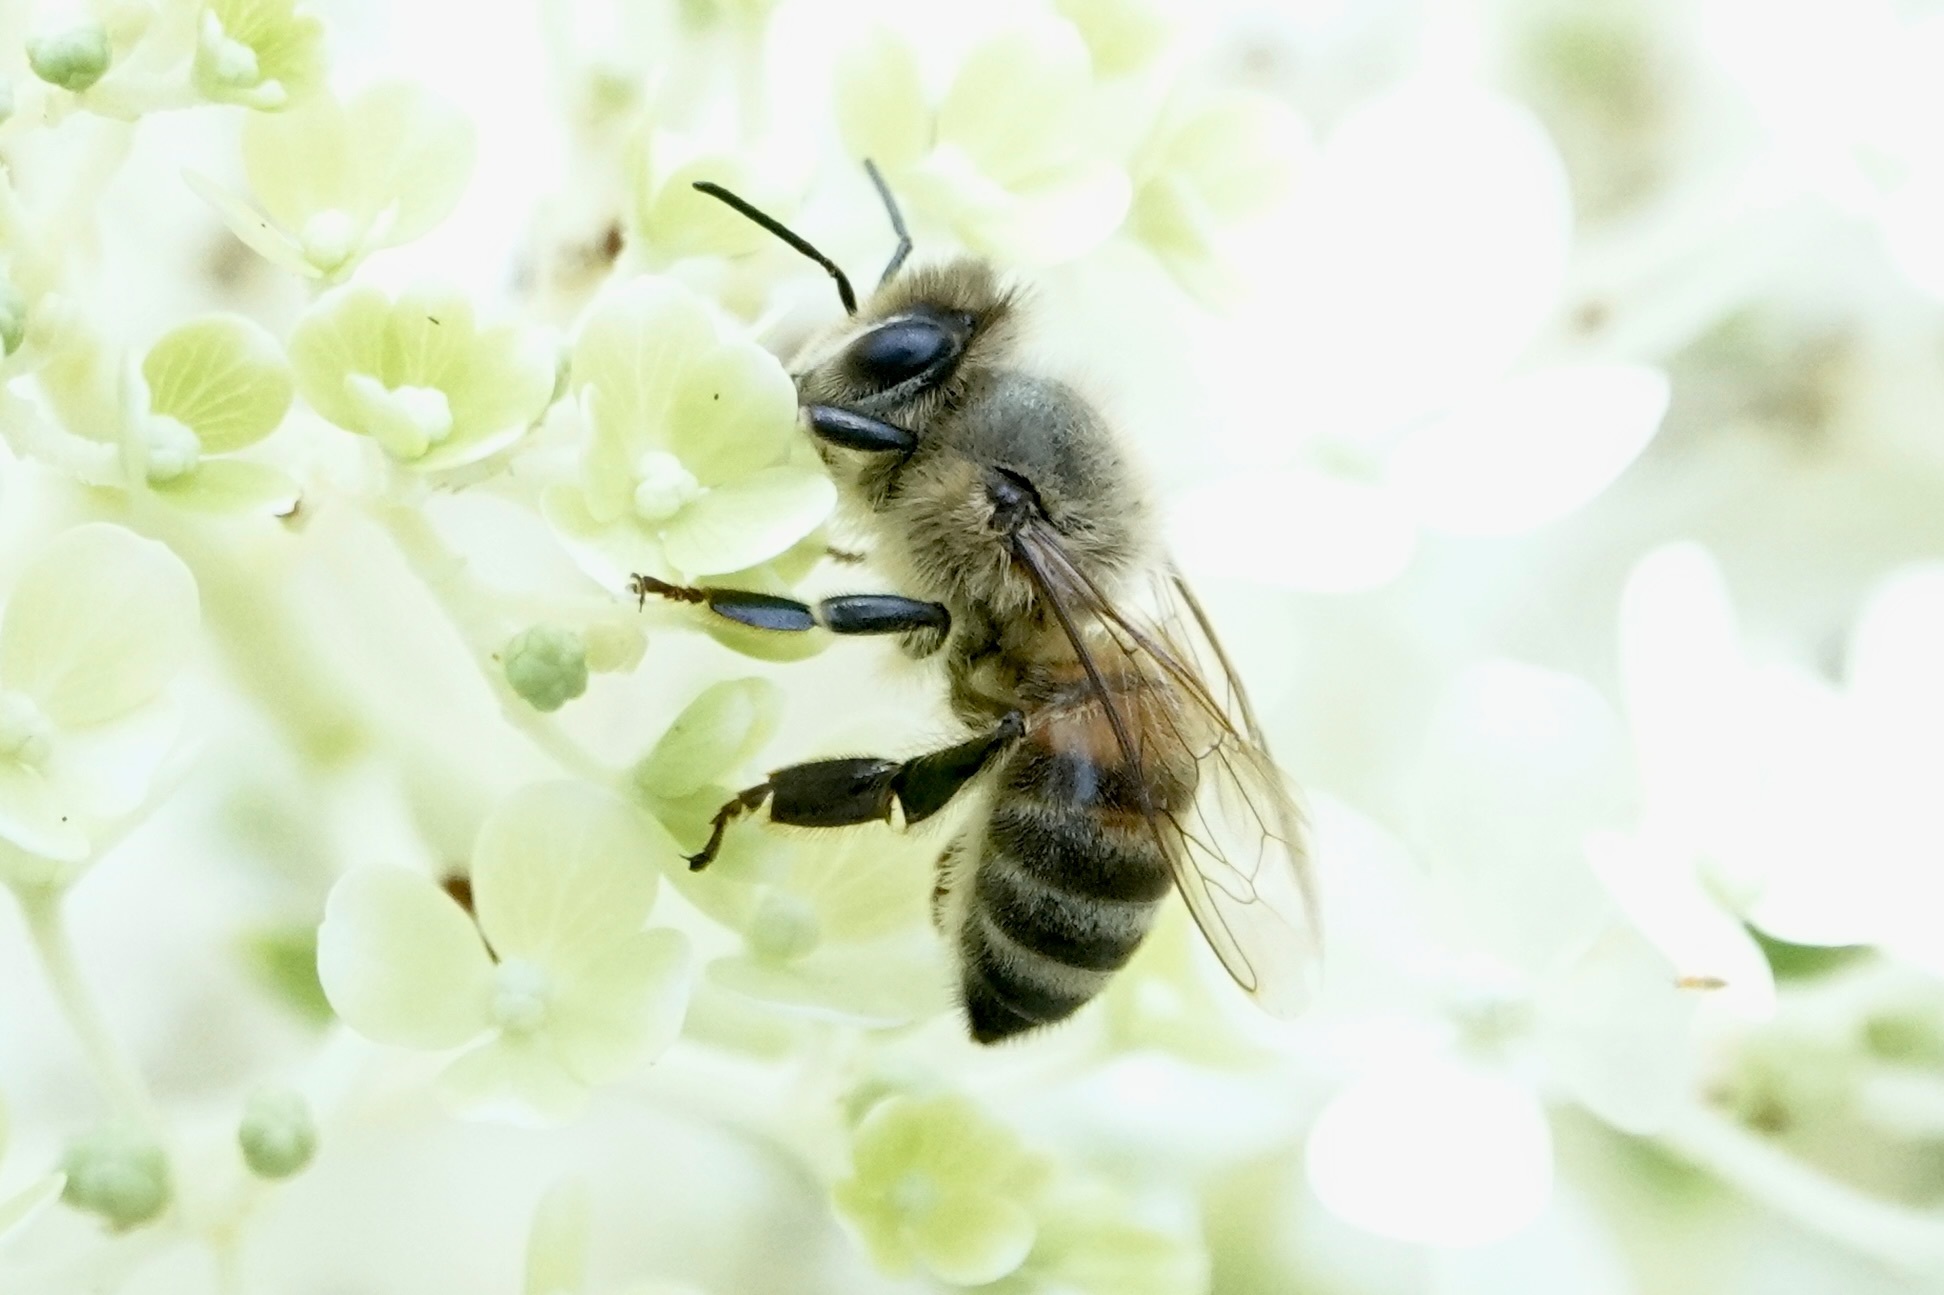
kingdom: Animalia
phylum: Arthropoda
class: Insecta
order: Hymenoptera
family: Apidae
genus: Apis
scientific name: Apis mellifera
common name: Honey bee
